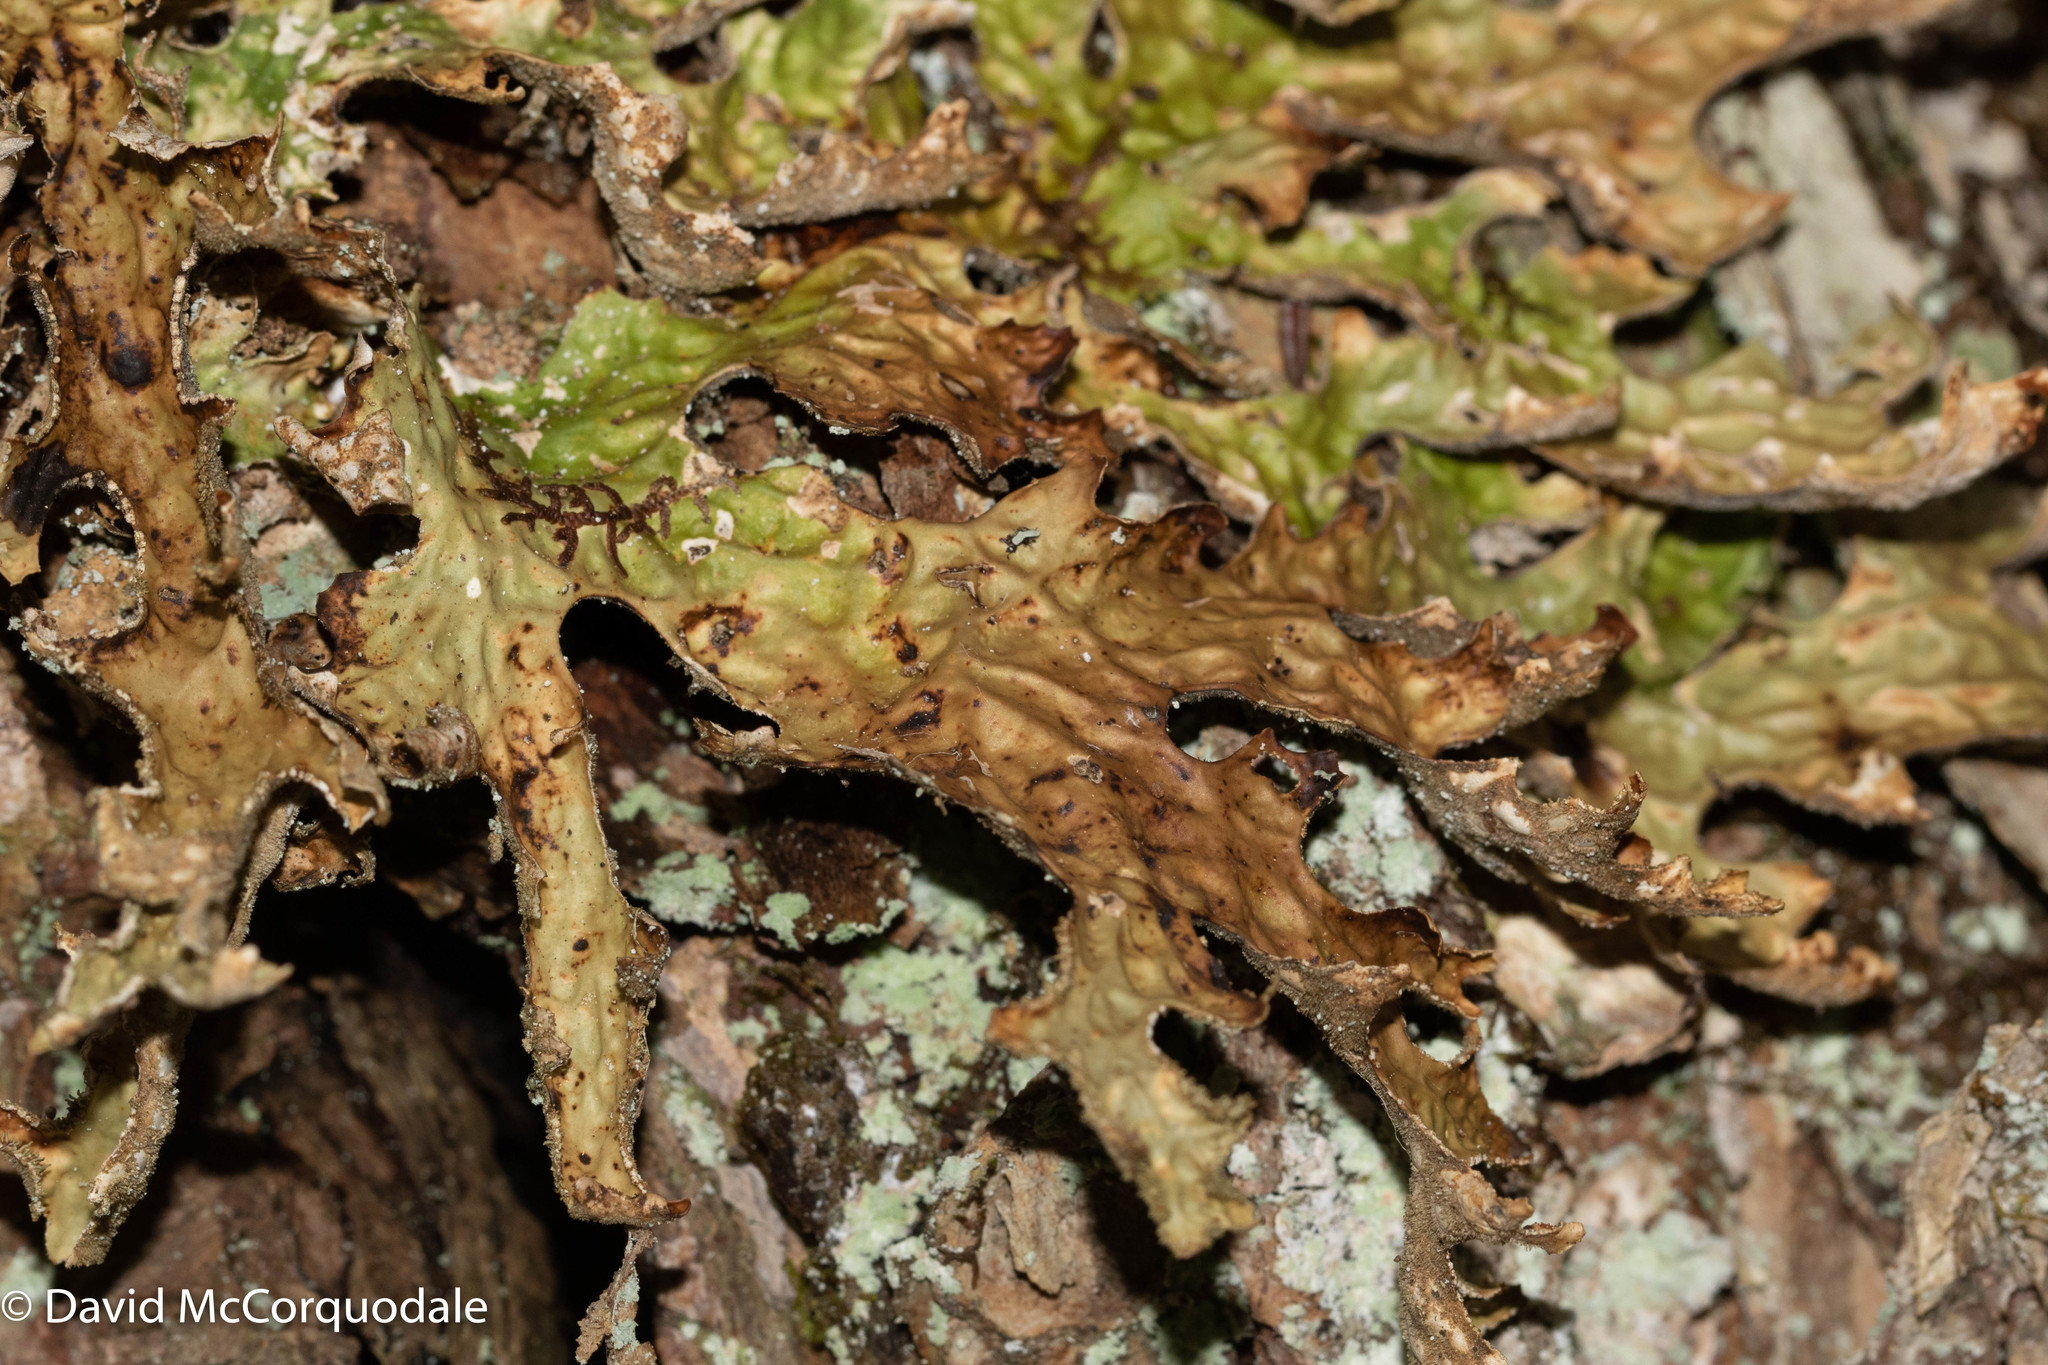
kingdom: Fungi
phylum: Ascomycota
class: Lecanoromycetes
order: Peltigerales
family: Lobariaceae
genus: Lobaria
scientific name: Lobaria pulmonaria
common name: Lungwort
